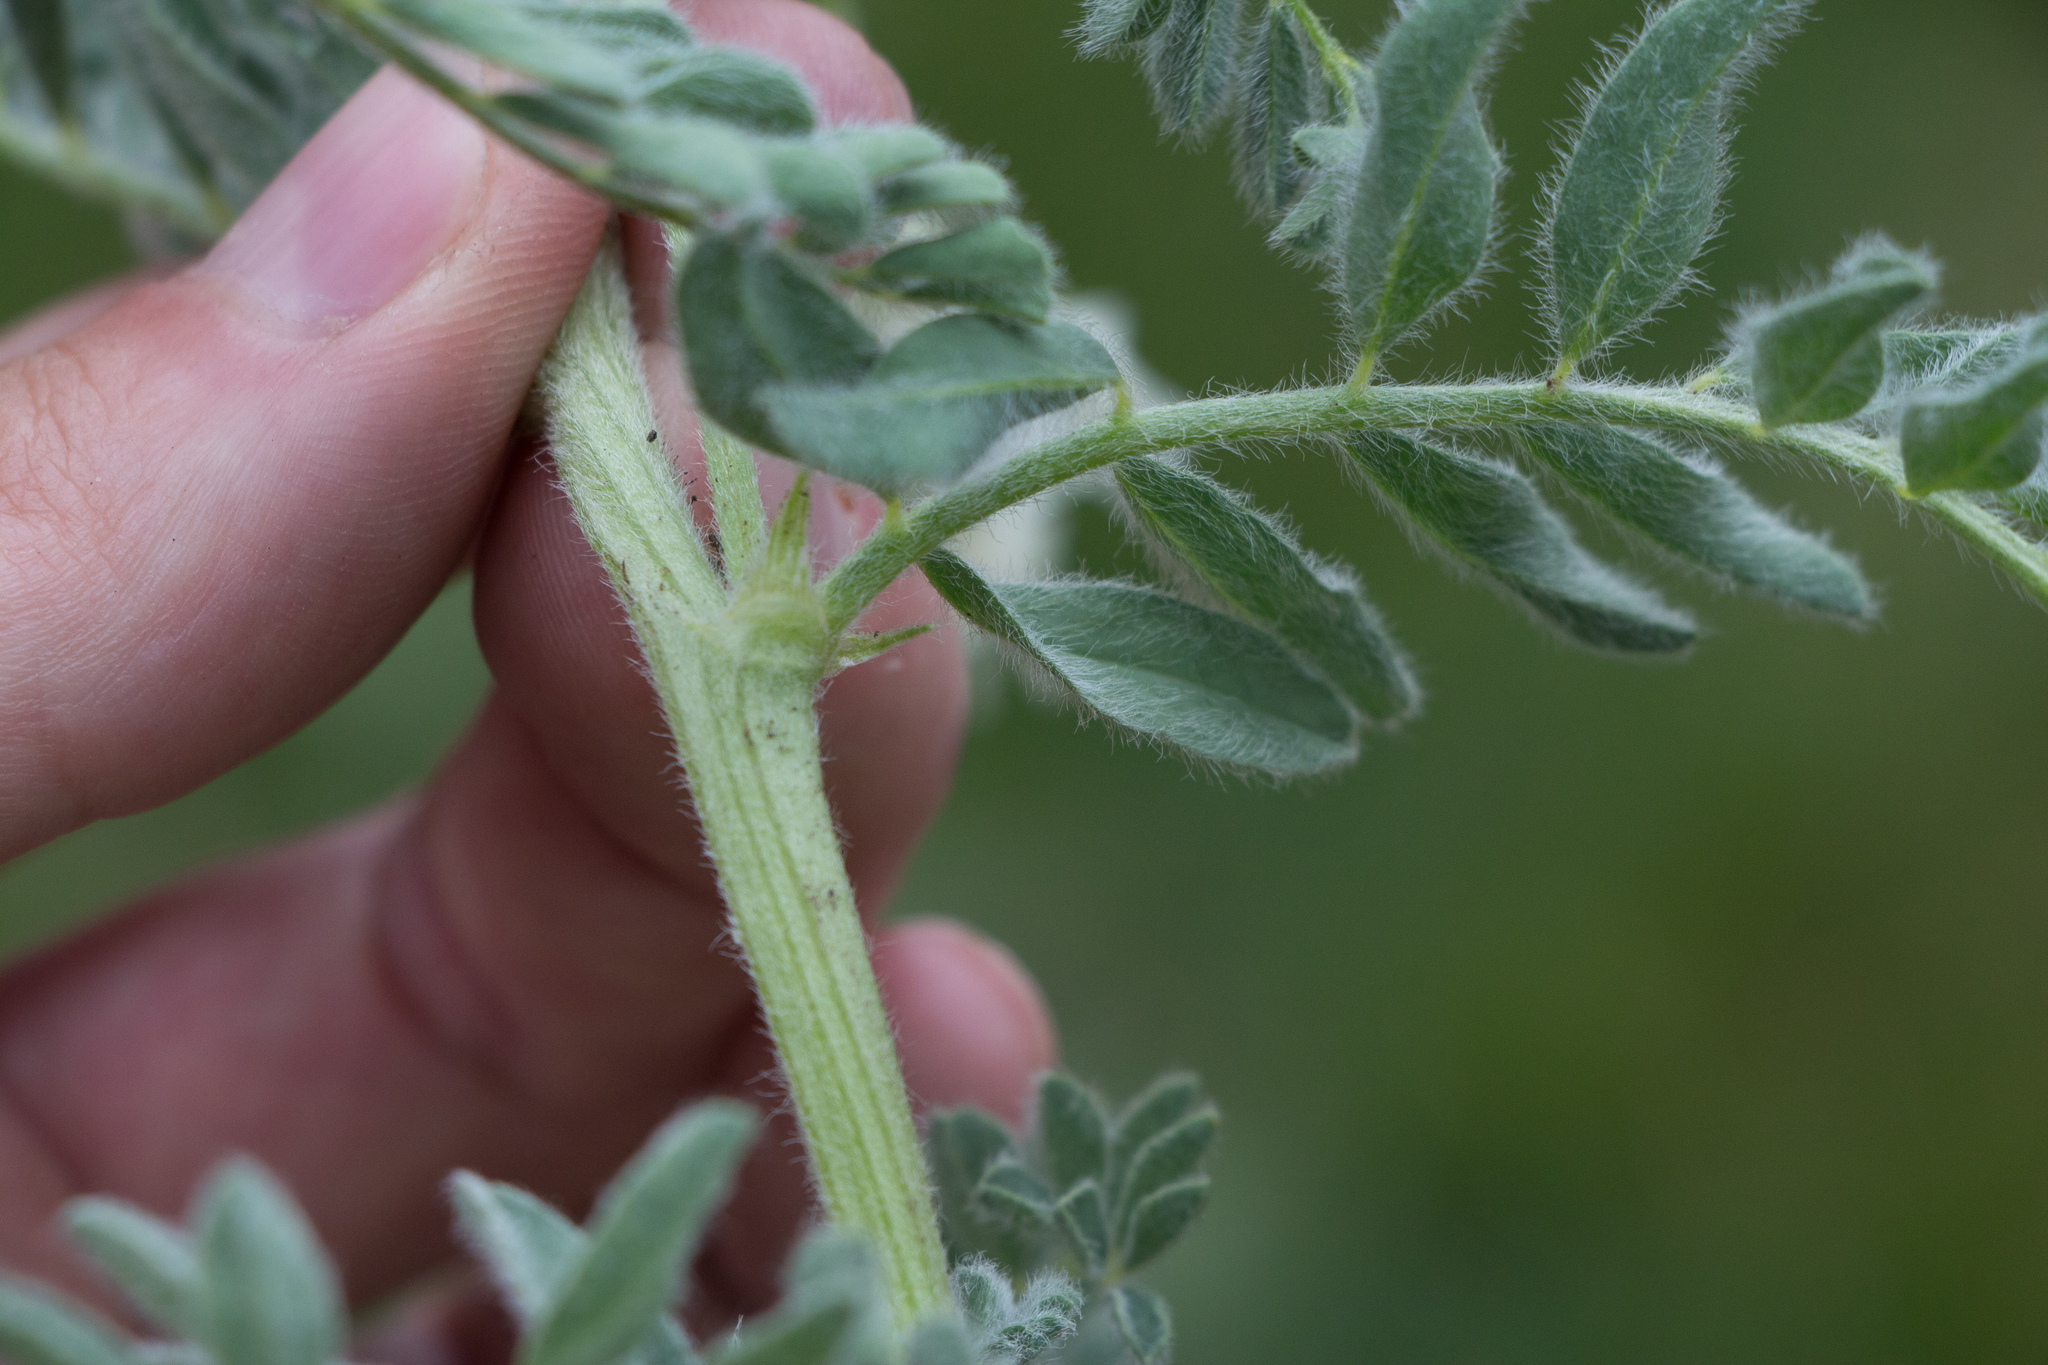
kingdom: Plantae
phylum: Tracheophyta
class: Magnoliopsida
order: Fabales
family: Fabaceae
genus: Astragalus
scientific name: Astragalus drummondii
